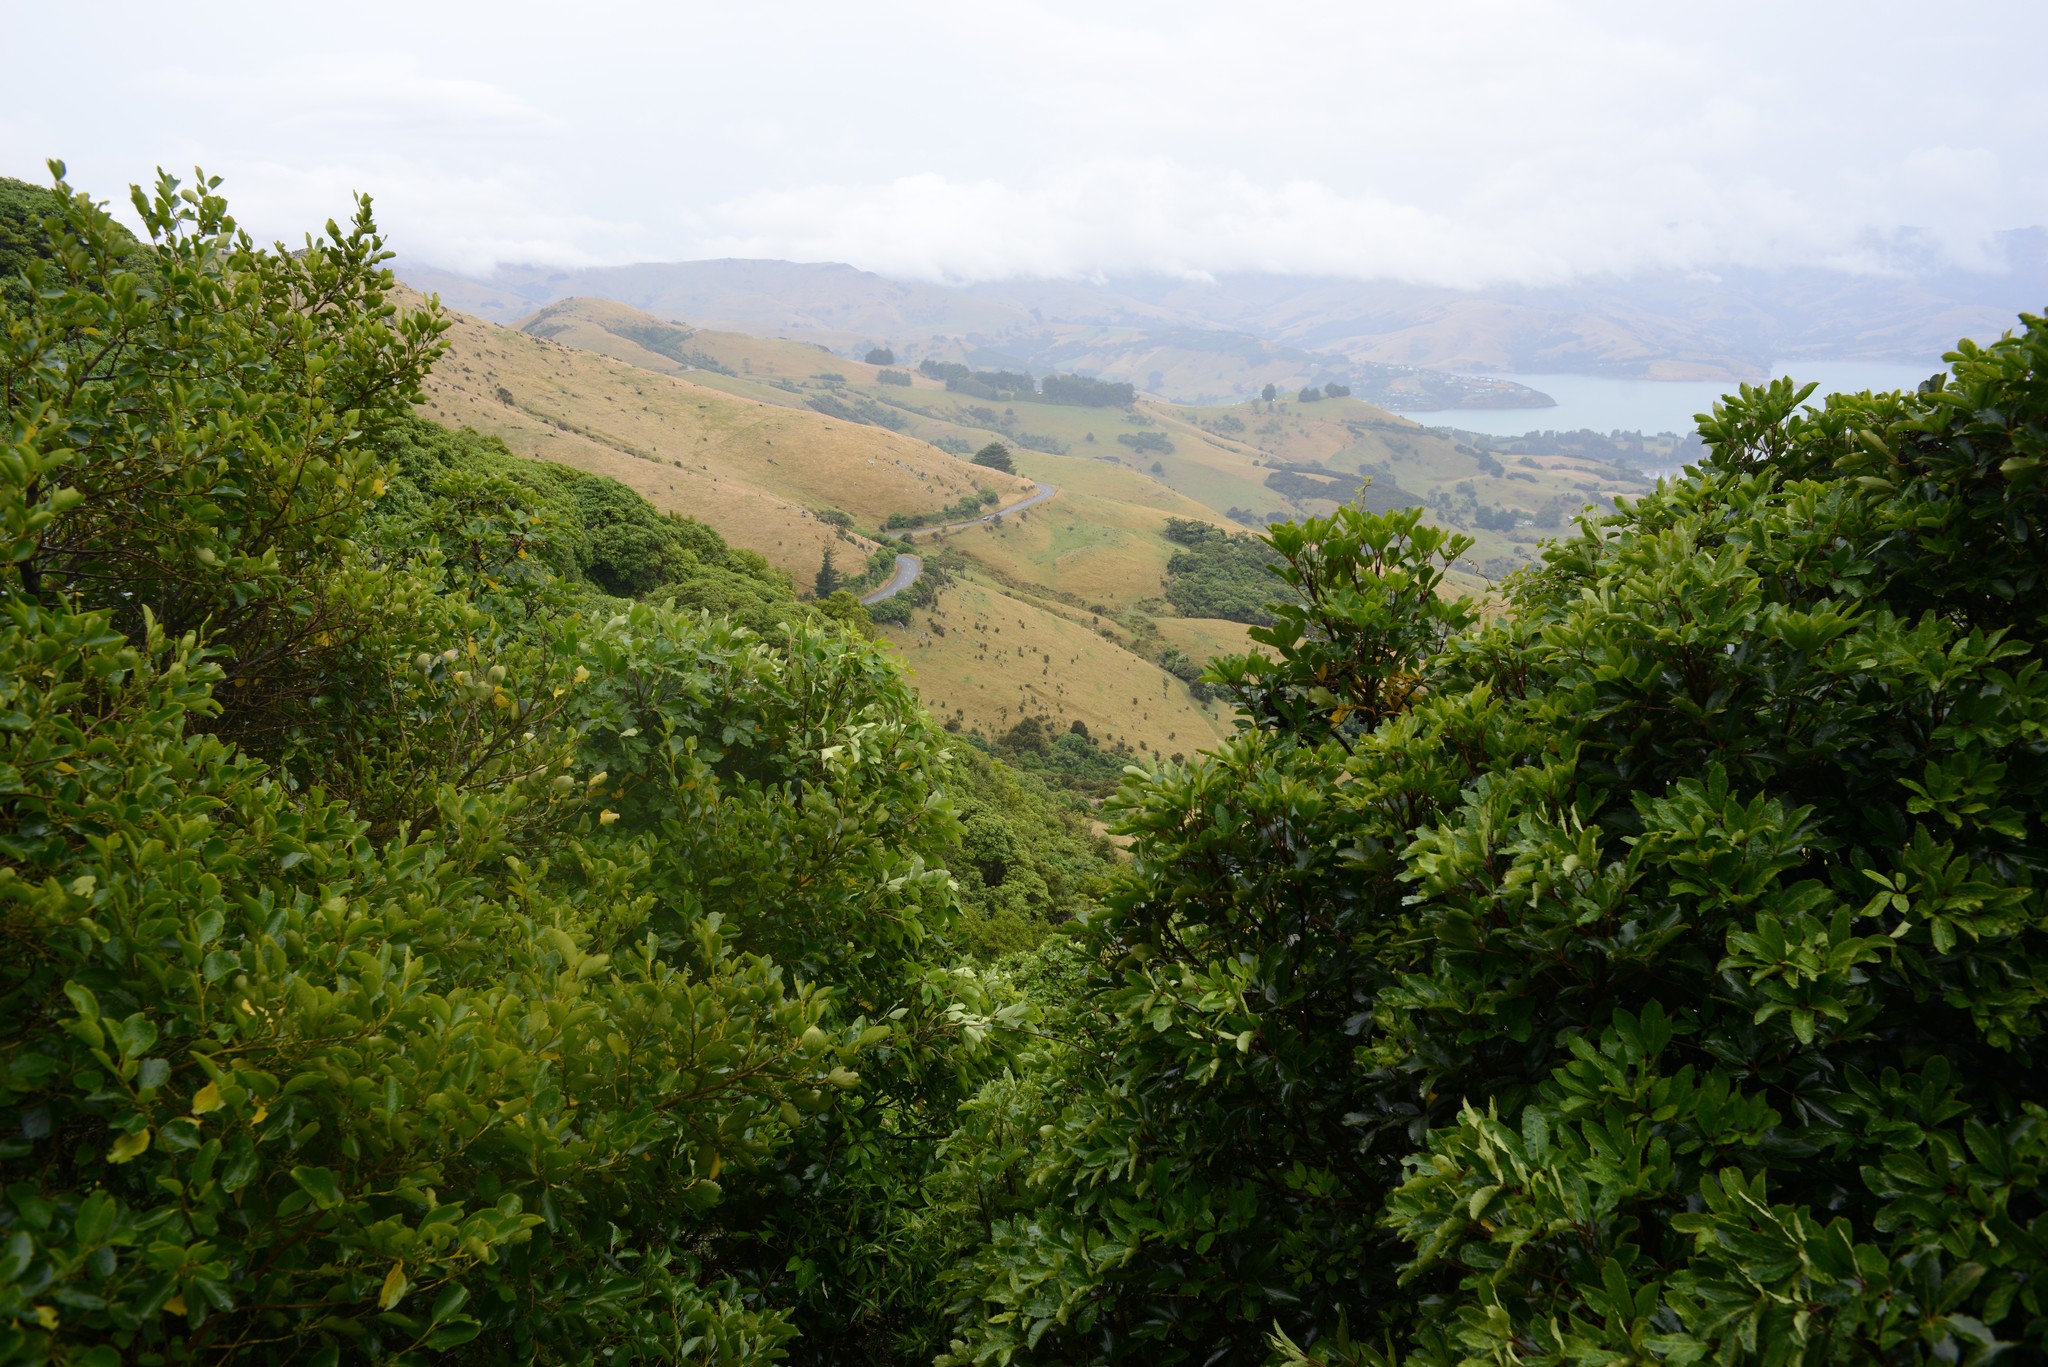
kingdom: Plantae
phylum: Tracheophyta
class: Magnoliopsida
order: Apiales
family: Griseliniaceae
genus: Griselinia
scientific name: Griselinia littoralis
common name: New zealand broadleaf
